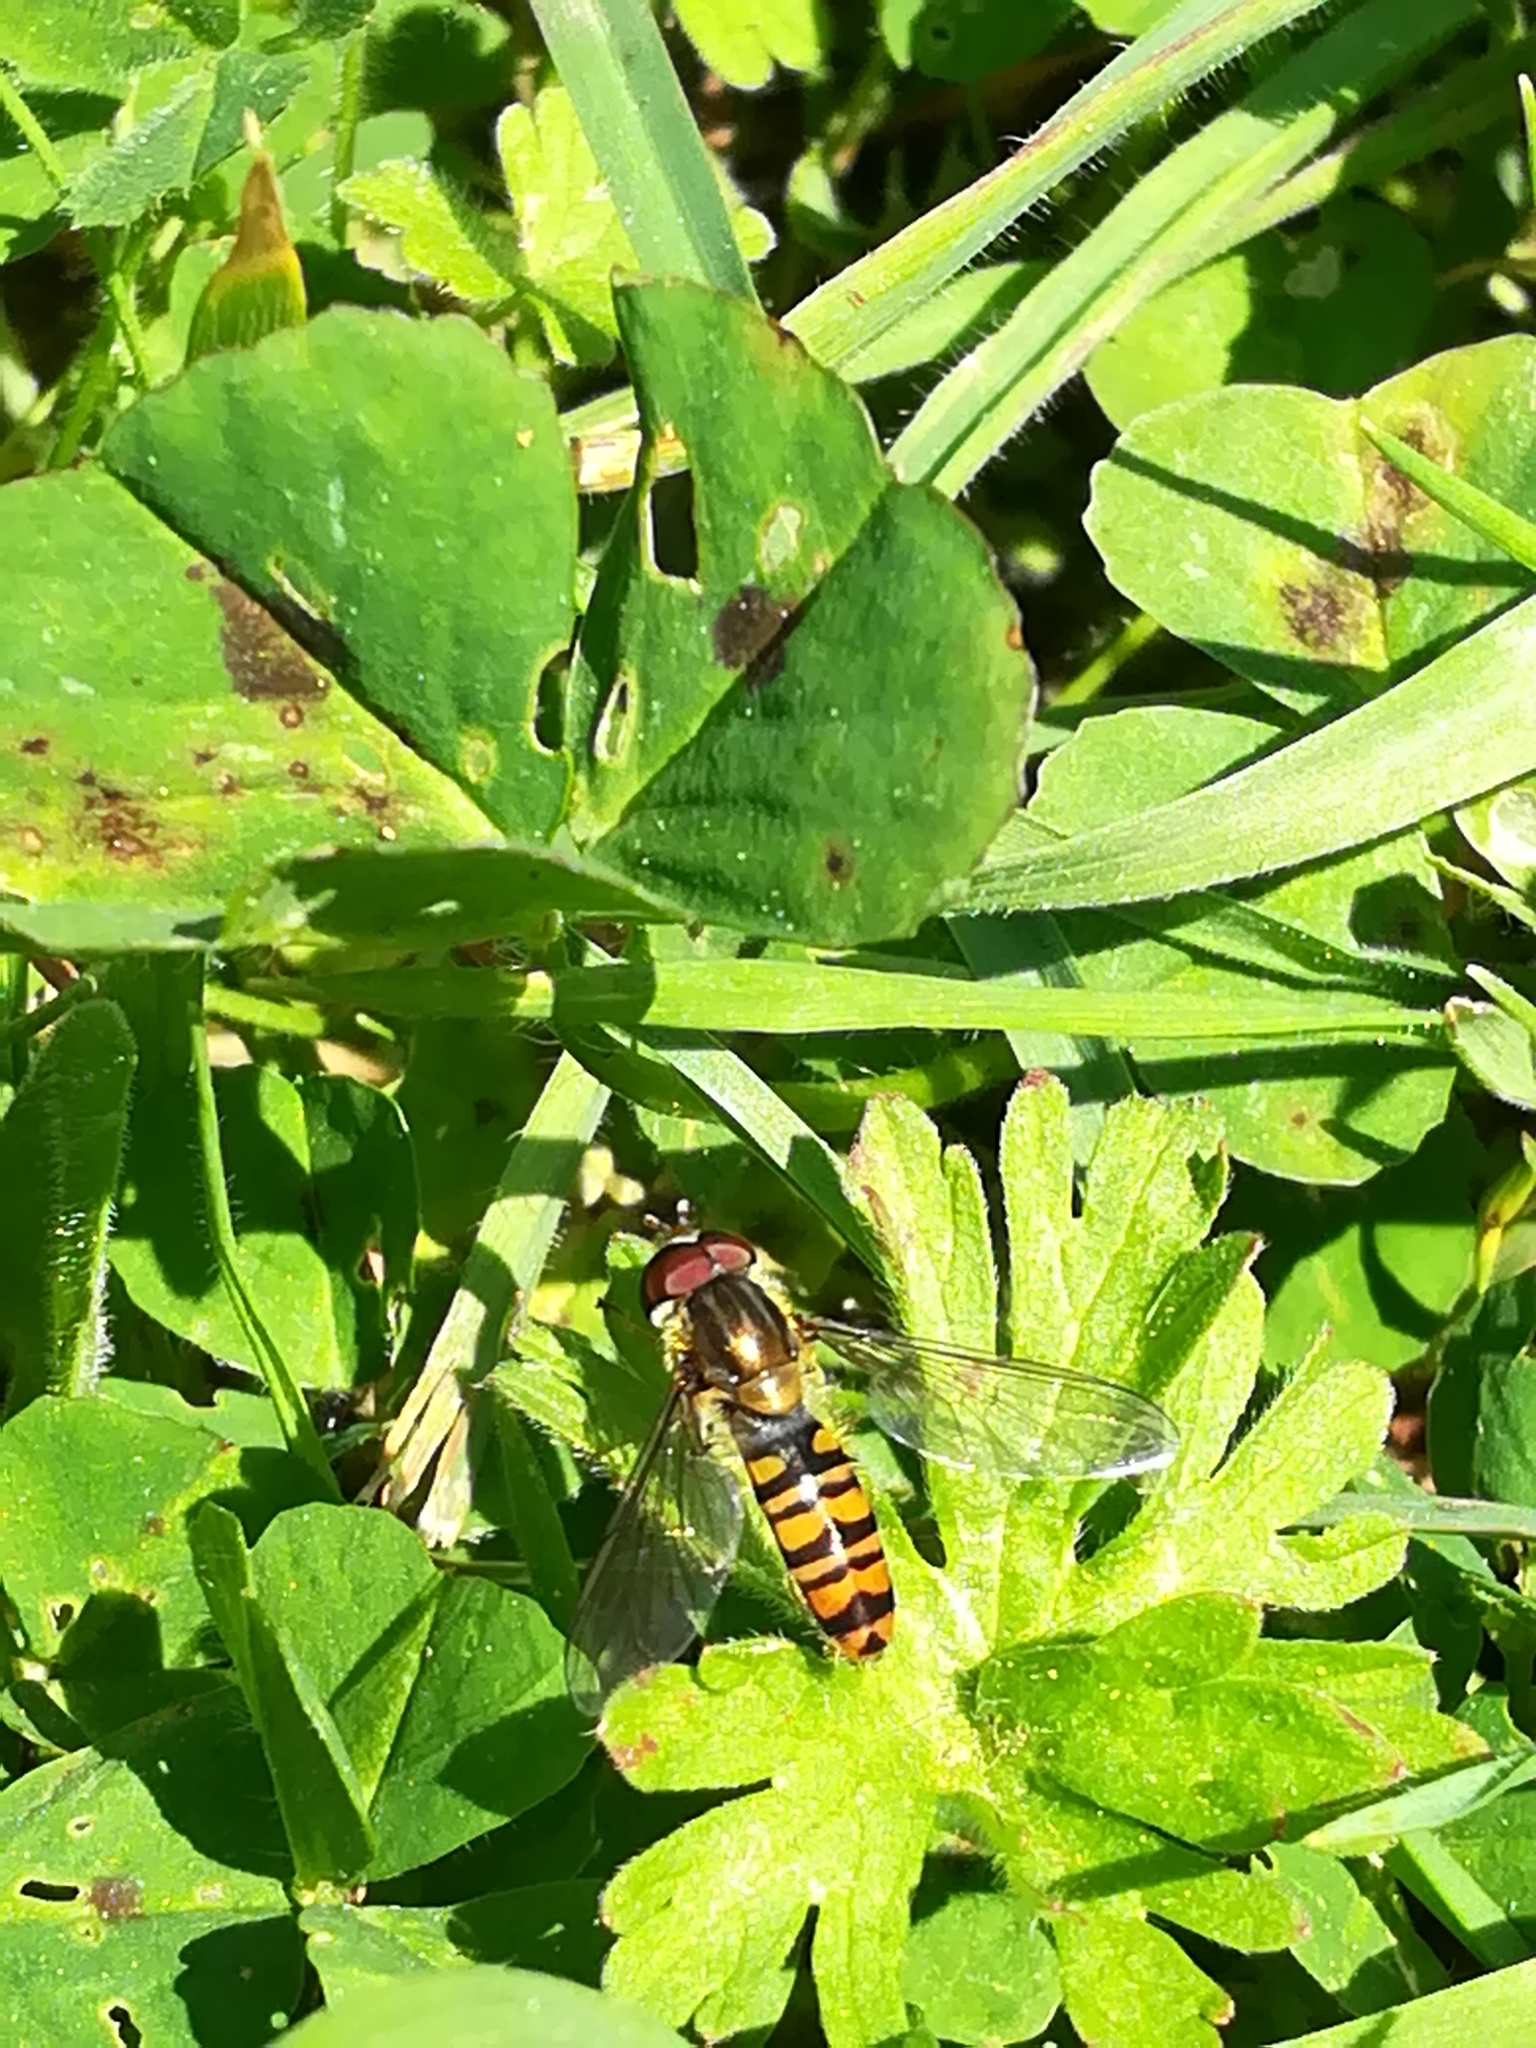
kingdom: Animalia
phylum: Arthropoda
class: Insecta
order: Diptera
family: Syrphidae
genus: Episyrphus
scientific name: Episyrphus balteatus
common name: Marmalade hoverfly
